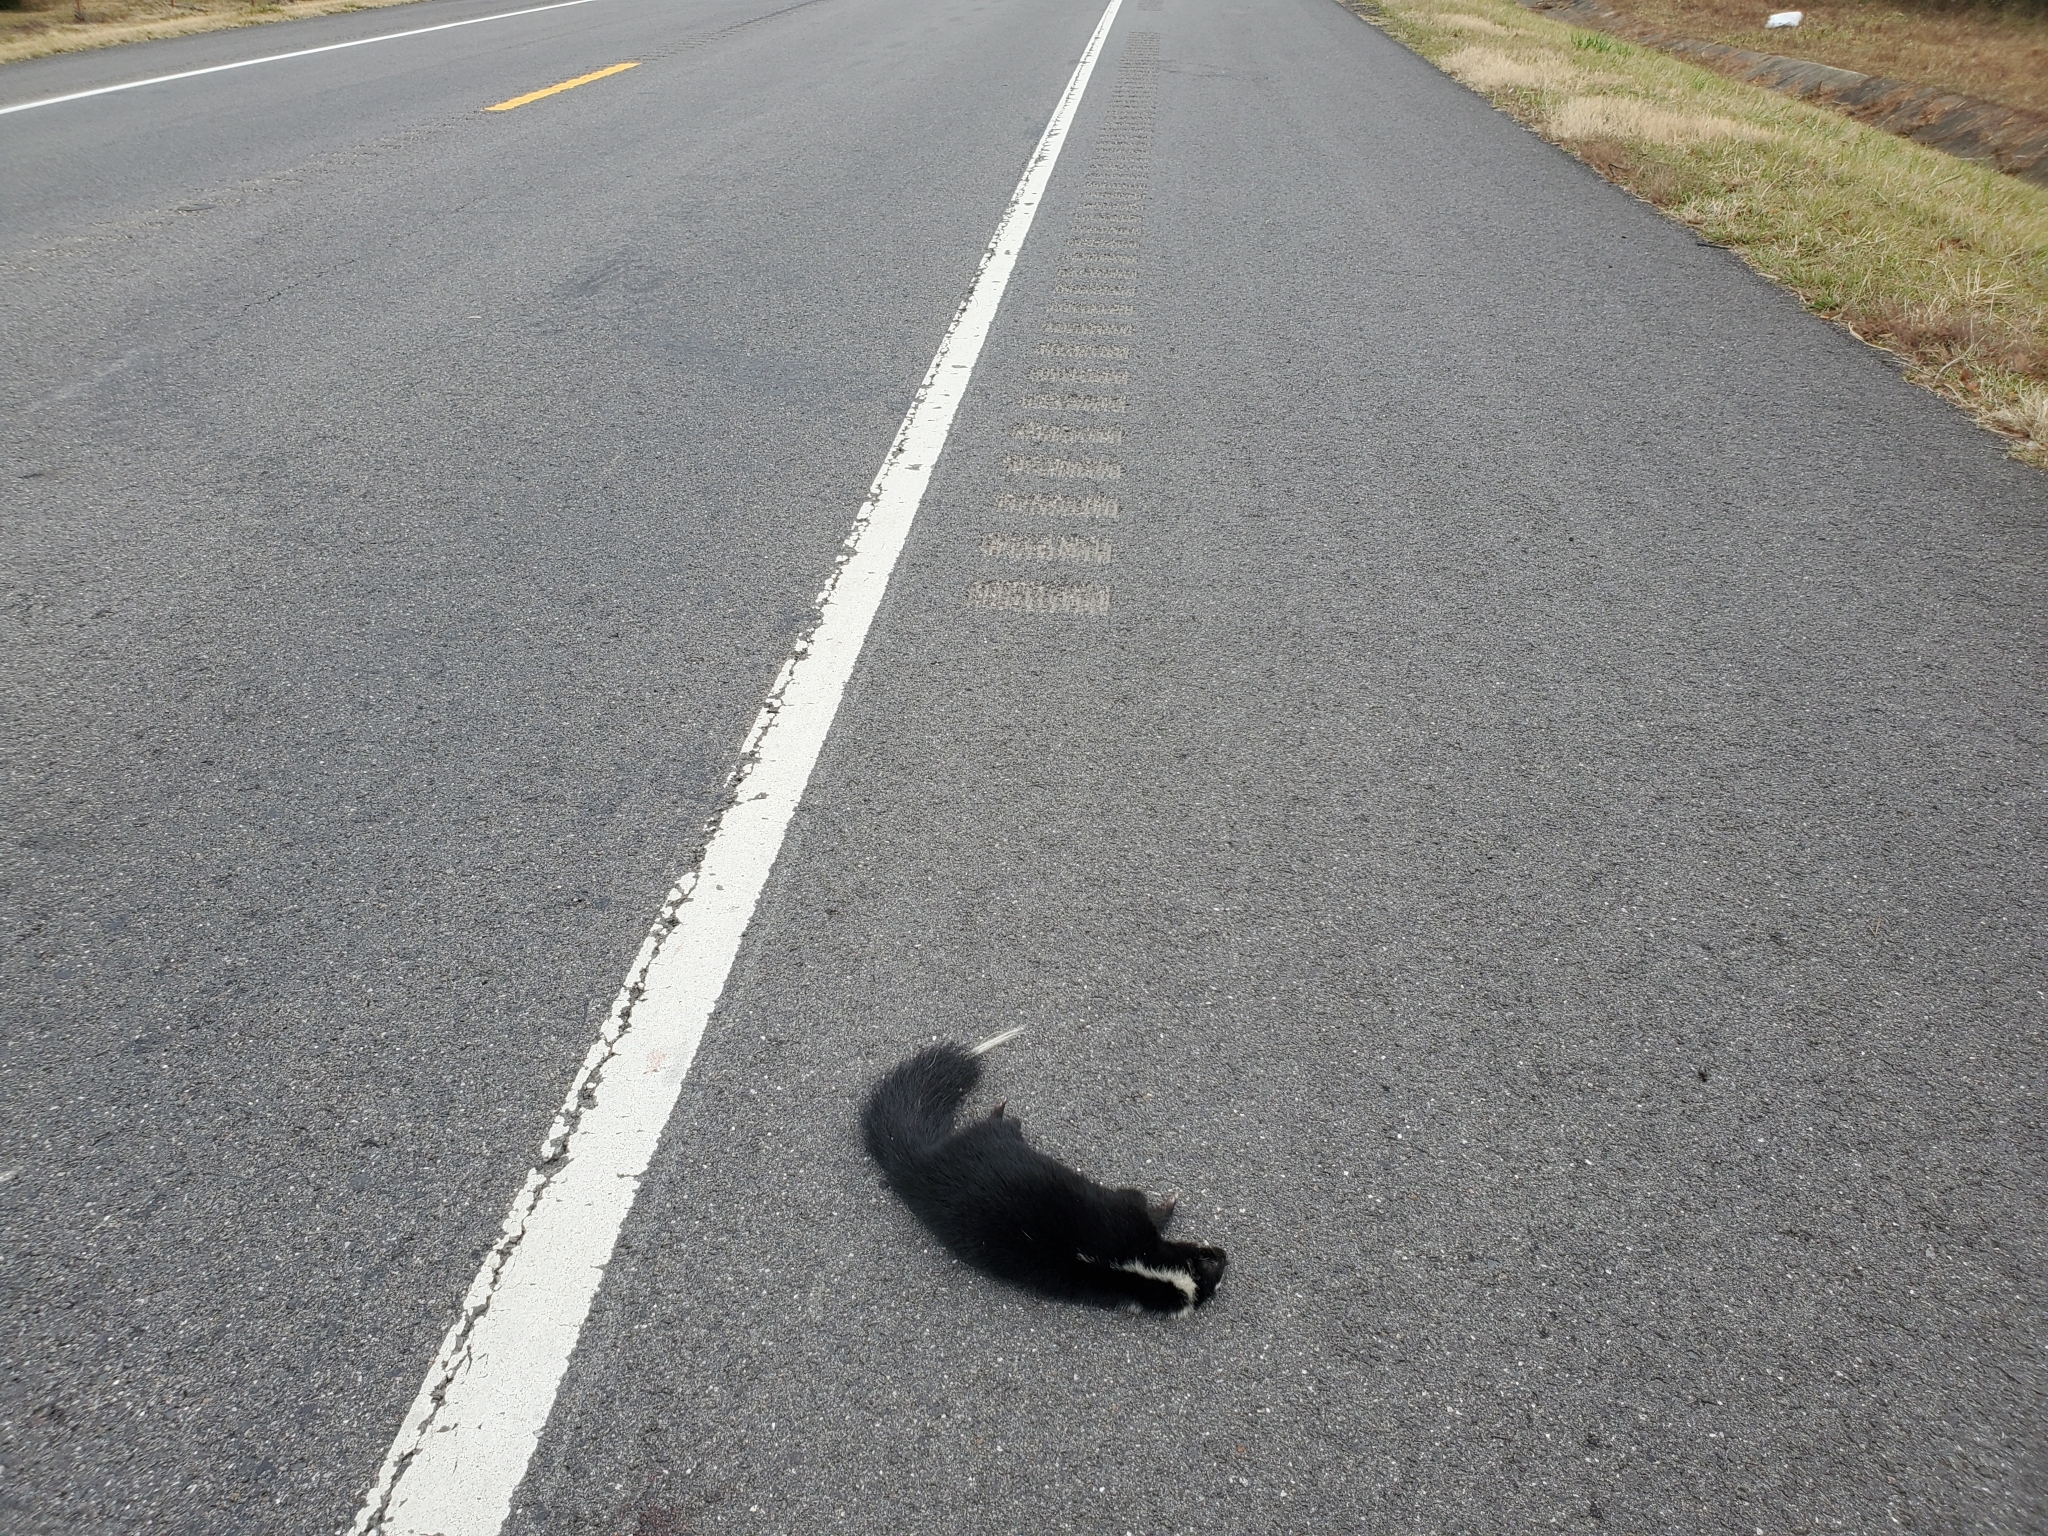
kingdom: Animalia
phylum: Chordata
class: Mammalia
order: Carnivora
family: Mephitidae
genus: Mephitis
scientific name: Mephitis mephitis
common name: Striped skunk
